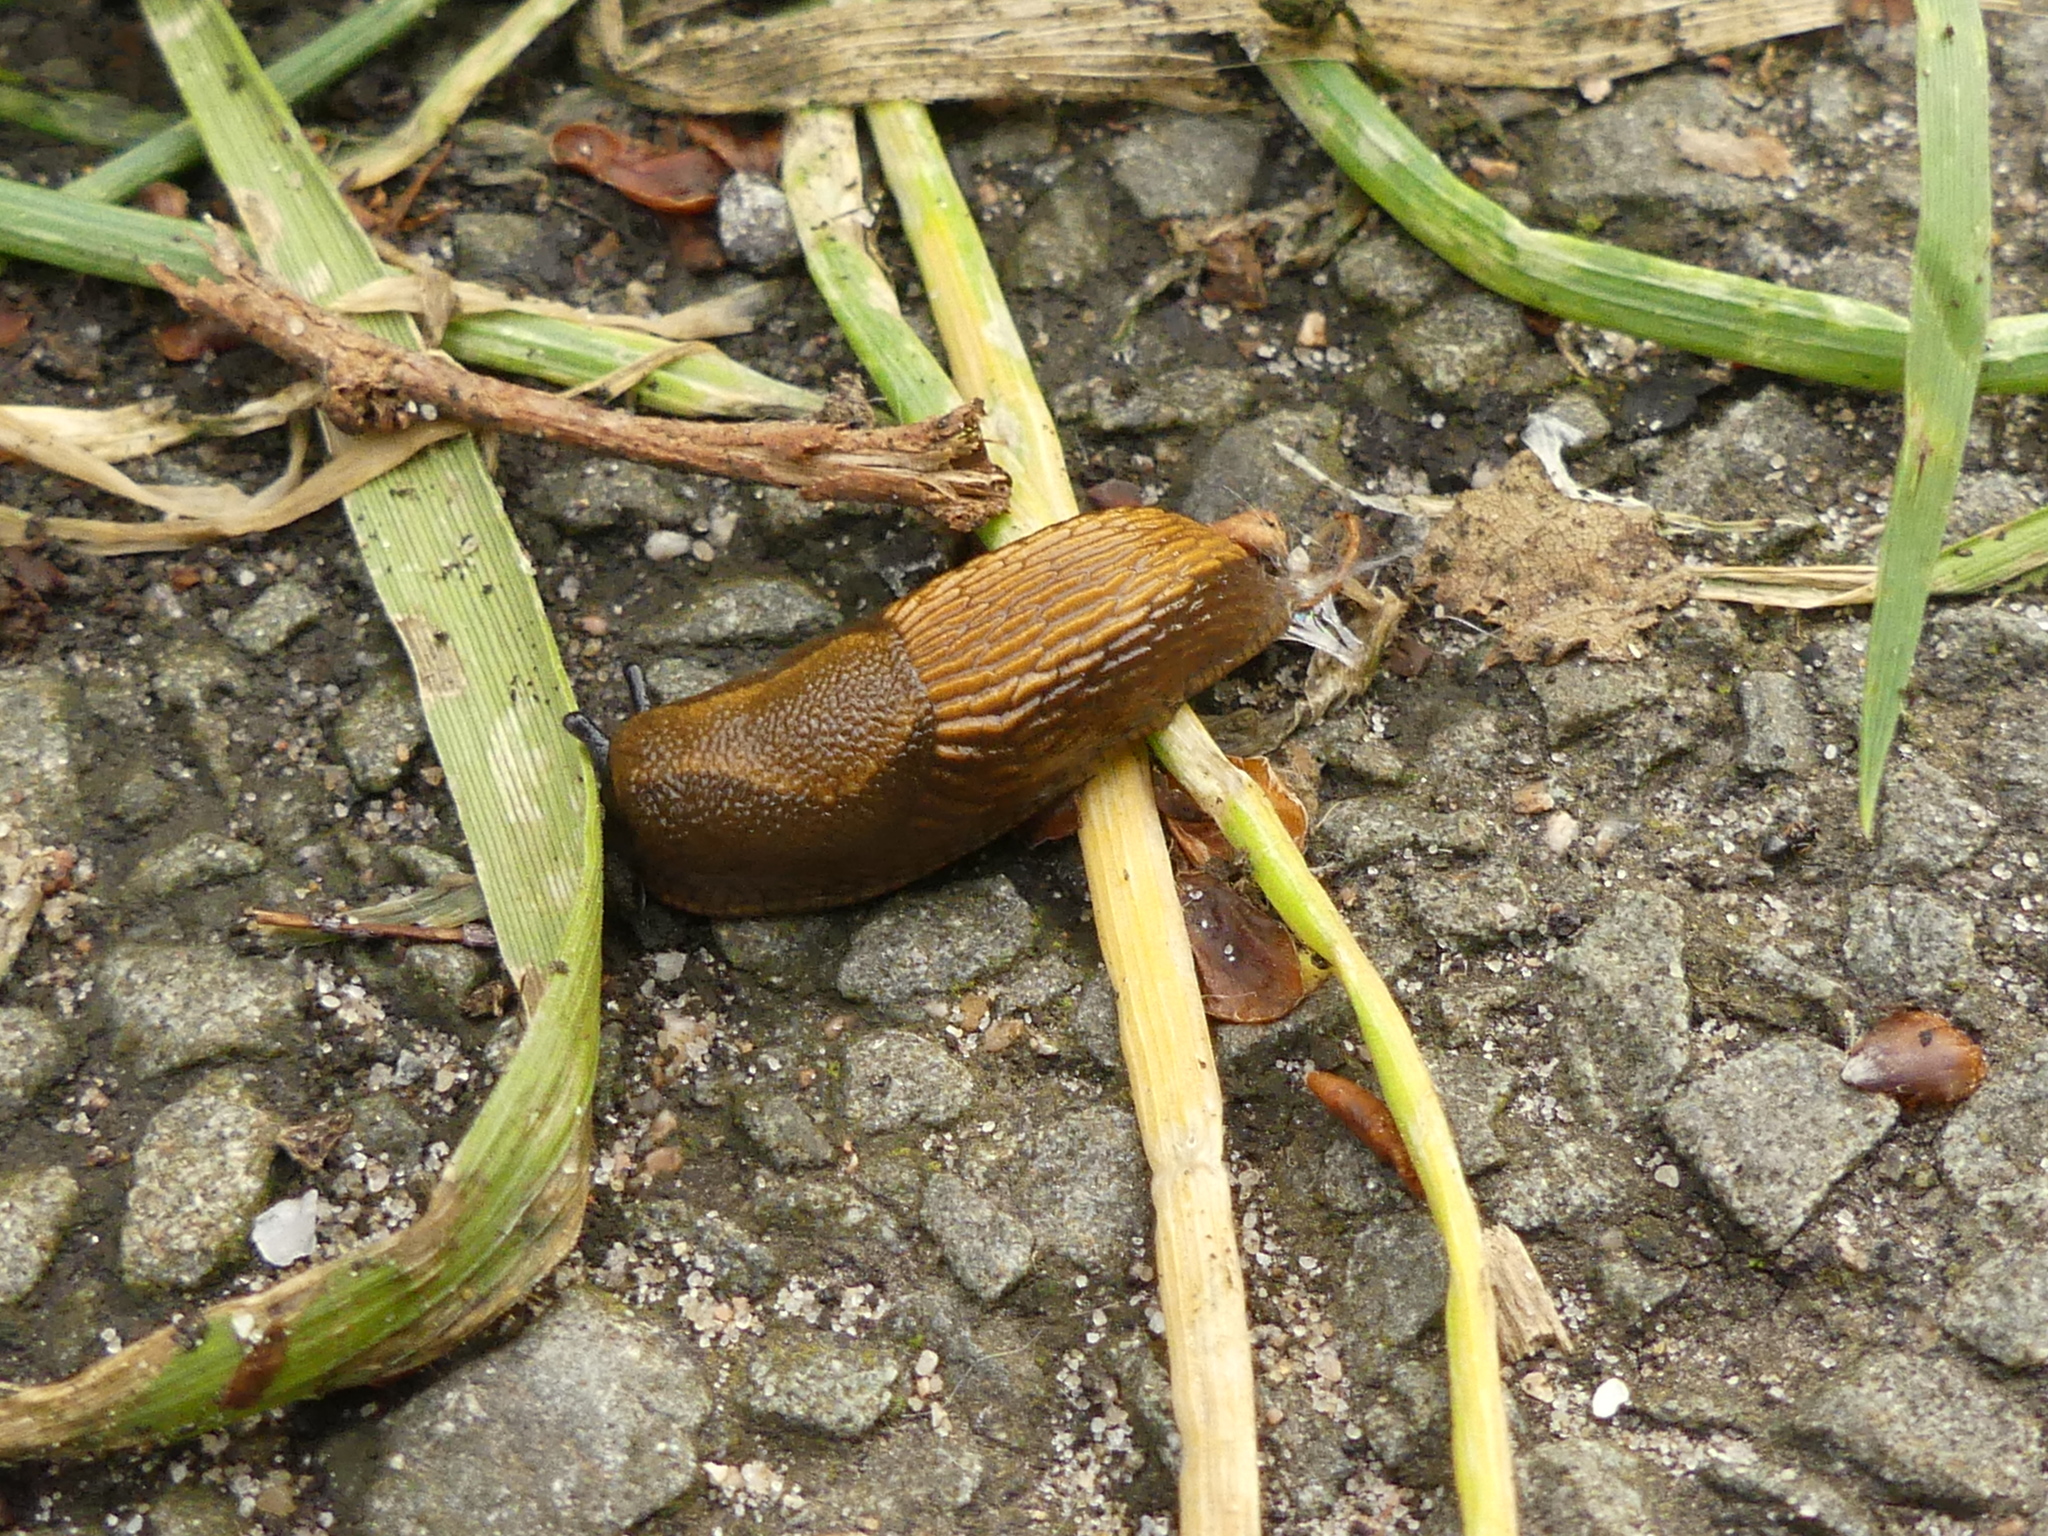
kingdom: Animalia
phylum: Mollusca
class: Gastropoda
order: Stylommatophora
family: Arionidae
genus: Arion
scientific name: Arion vulgaris
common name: Lusitanian slug
